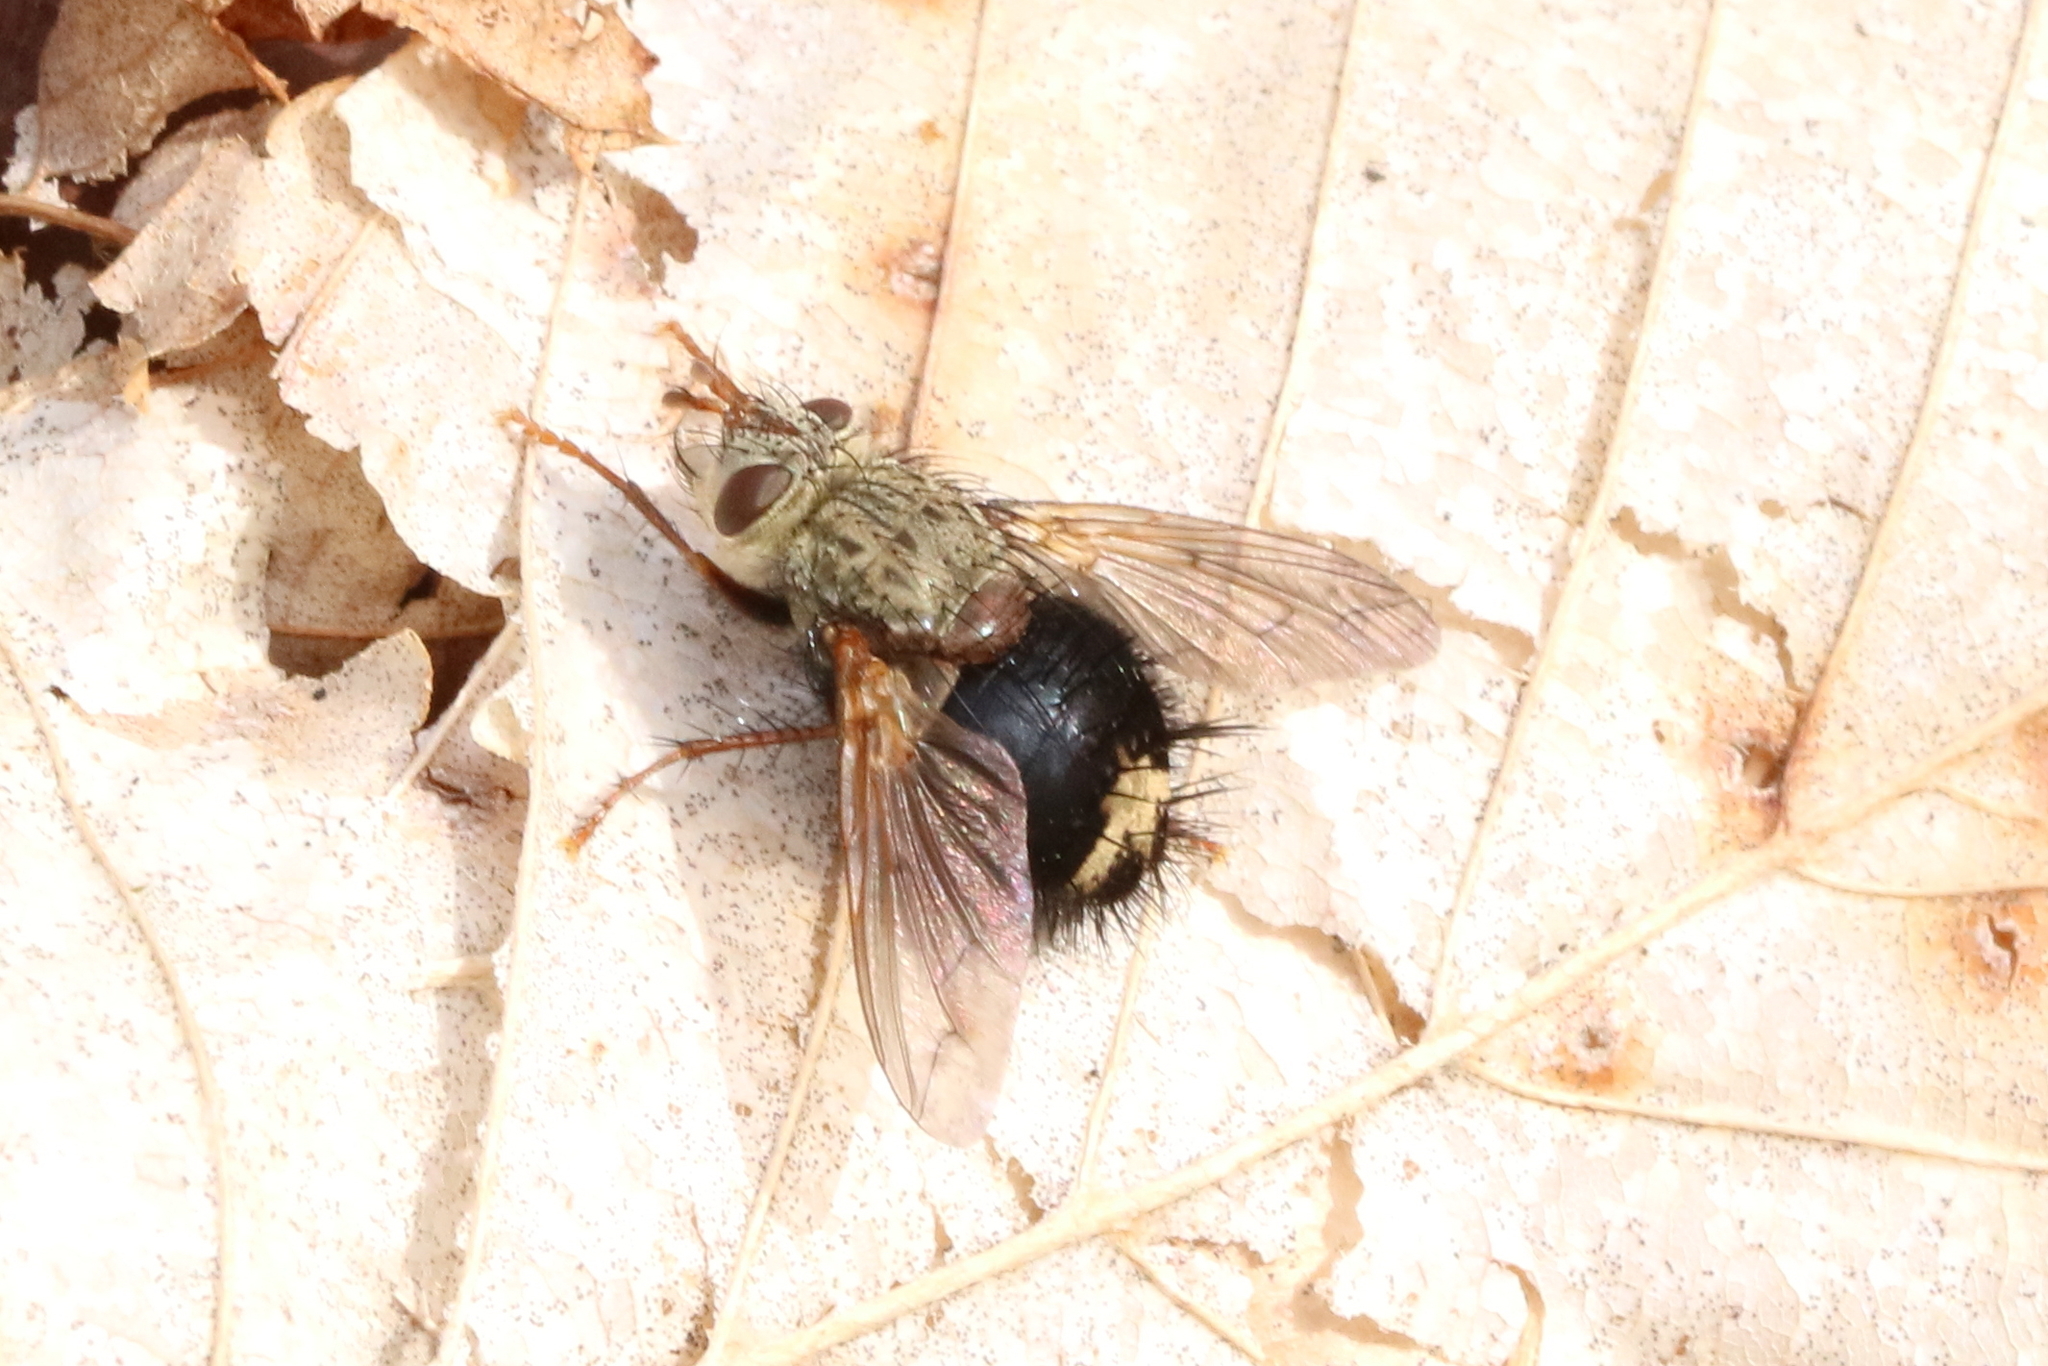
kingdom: Animalia
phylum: Arthropoda
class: Insecta
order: Diptera
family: Tachinidae
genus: Epalpus
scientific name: Epalpus signifer
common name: Early tachinid fly
